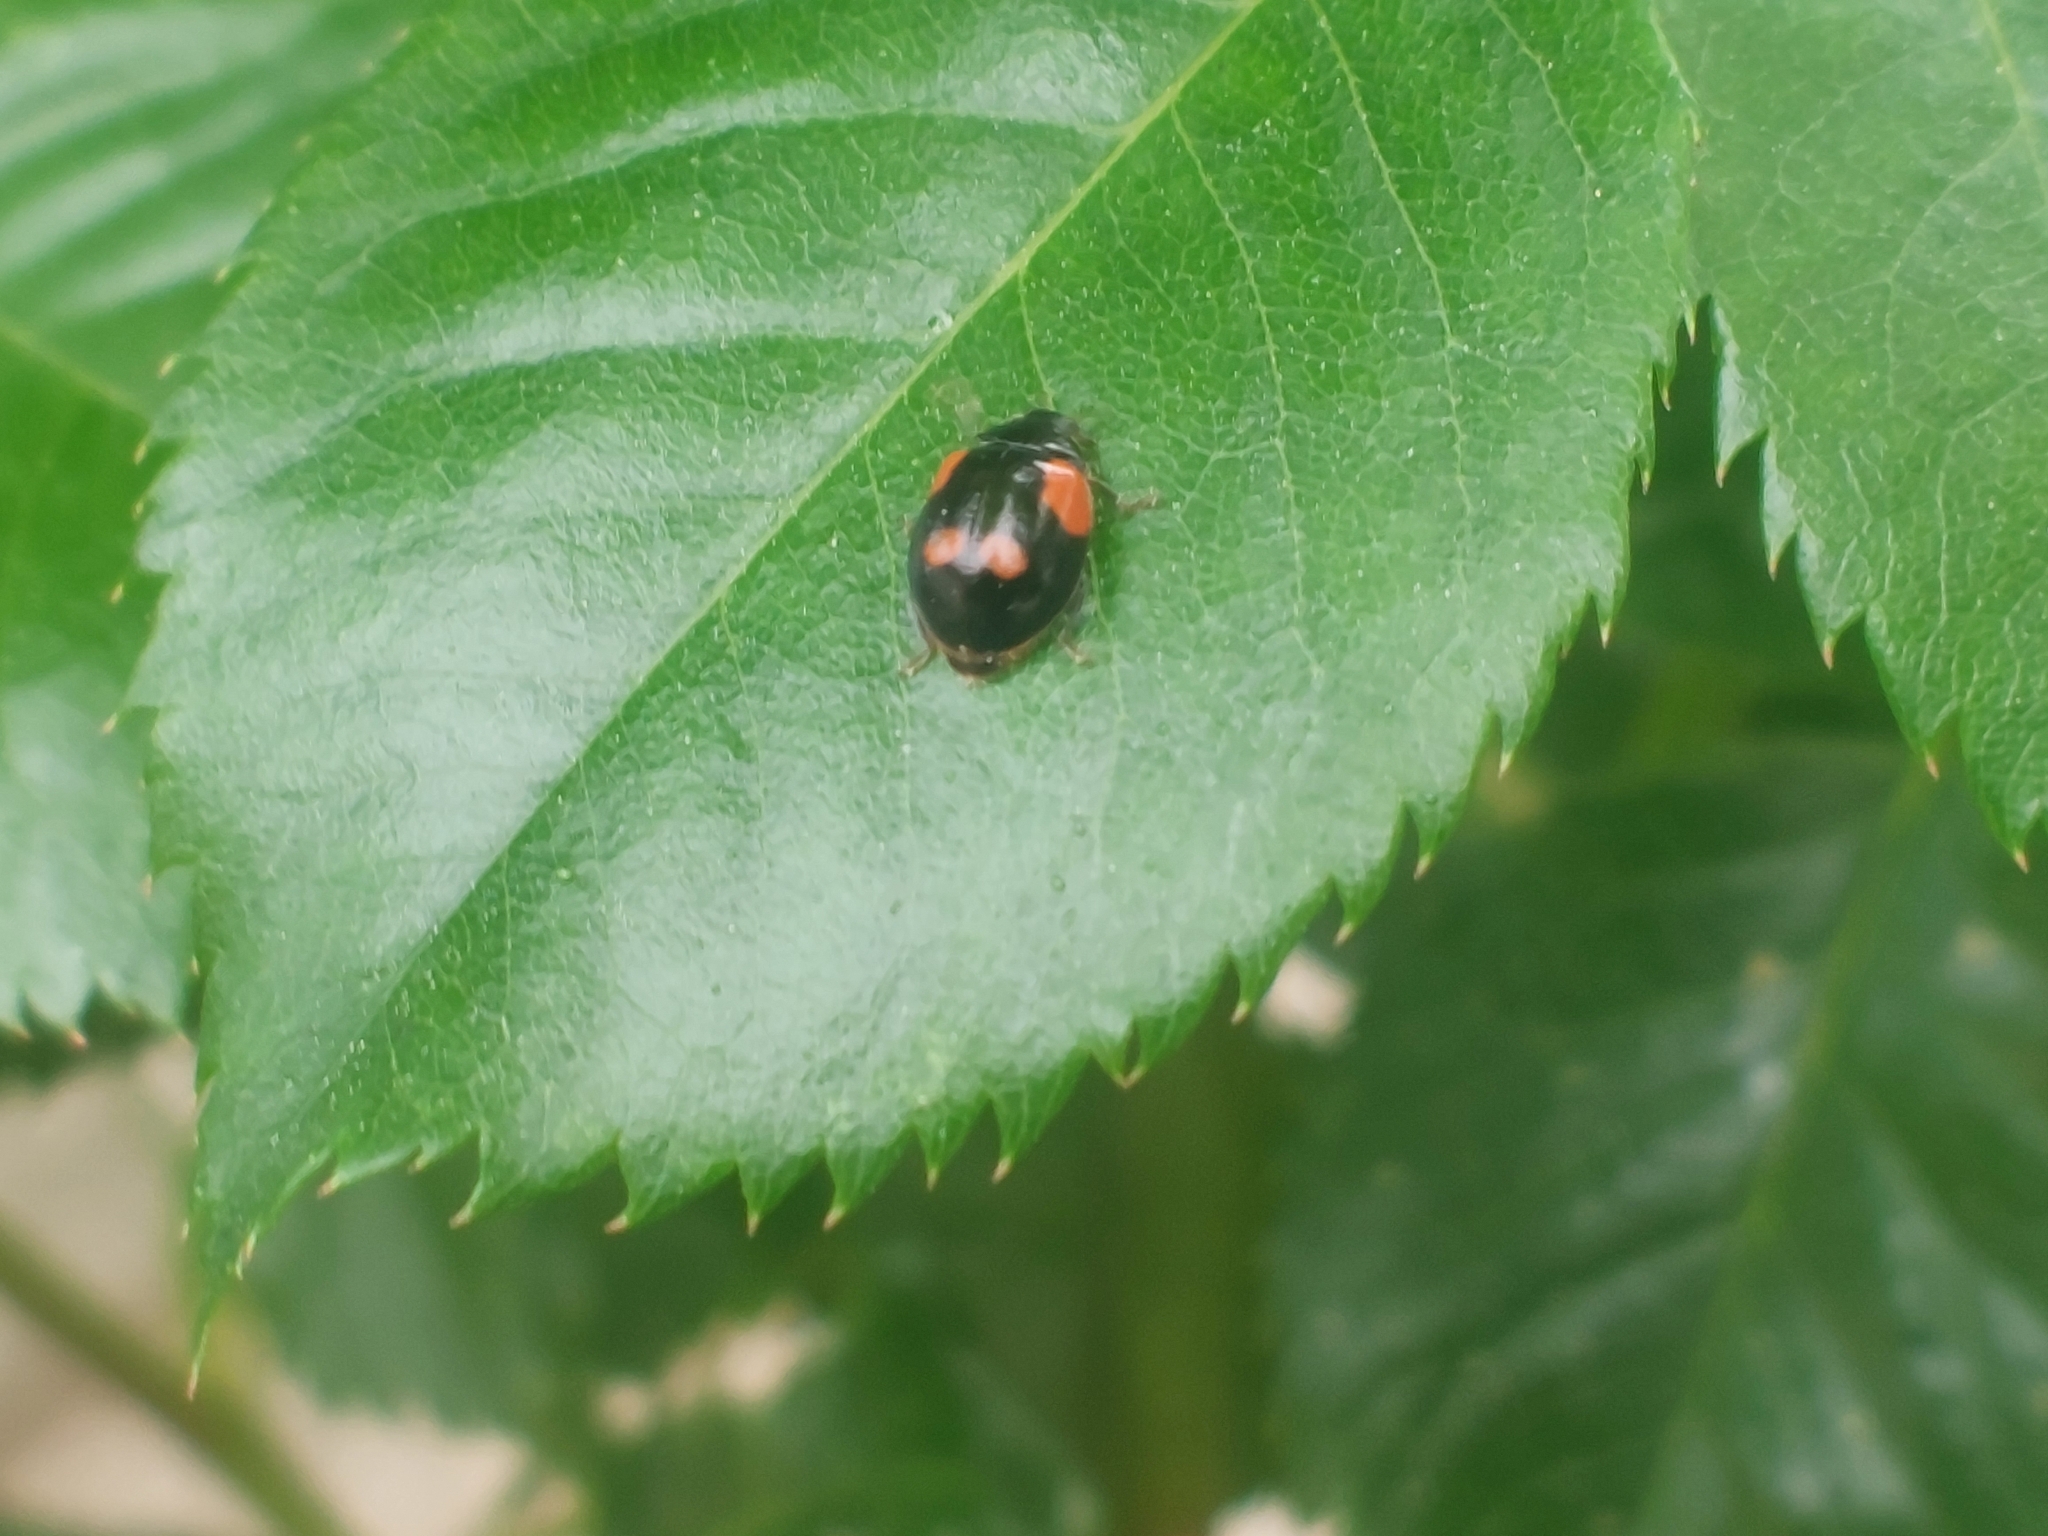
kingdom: Animalia
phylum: Arthropoda
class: Insecta
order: Coleoptera
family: Coccinellidae
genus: Adalia
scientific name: Adalia bipunctata
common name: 2-spot ladybird
